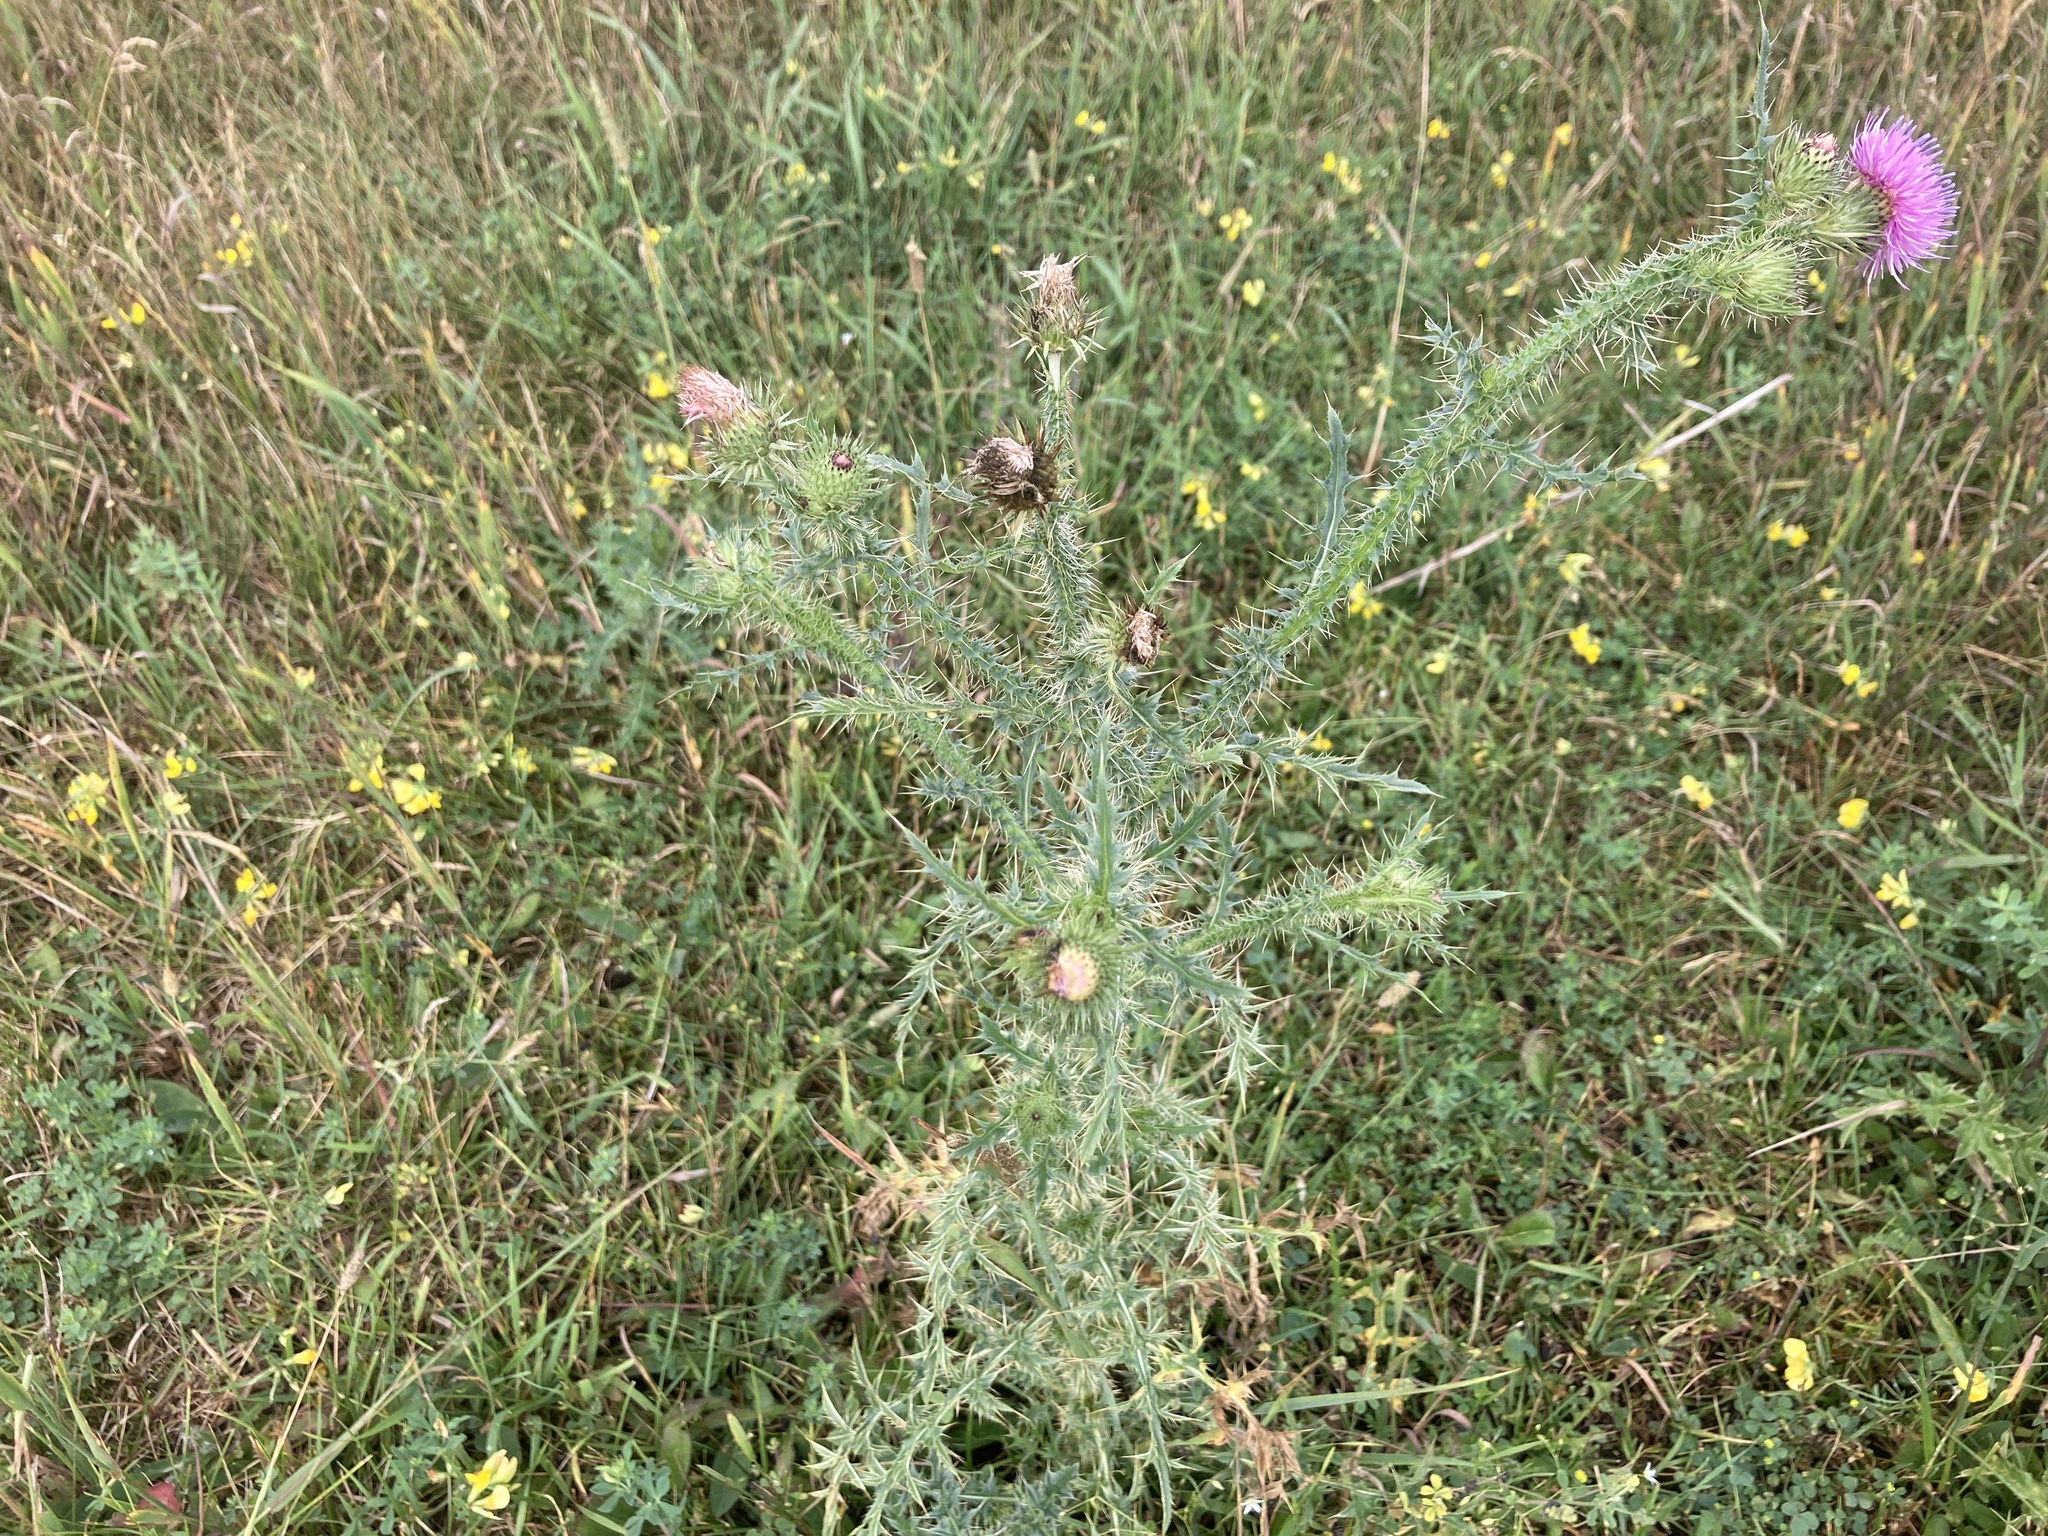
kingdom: Plantae
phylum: Tracheophyta
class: Magnoliopsida
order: Asterales
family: Asteraceae
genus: Carduus
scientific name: Carduus acanthoides
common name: Plumeless thistle
